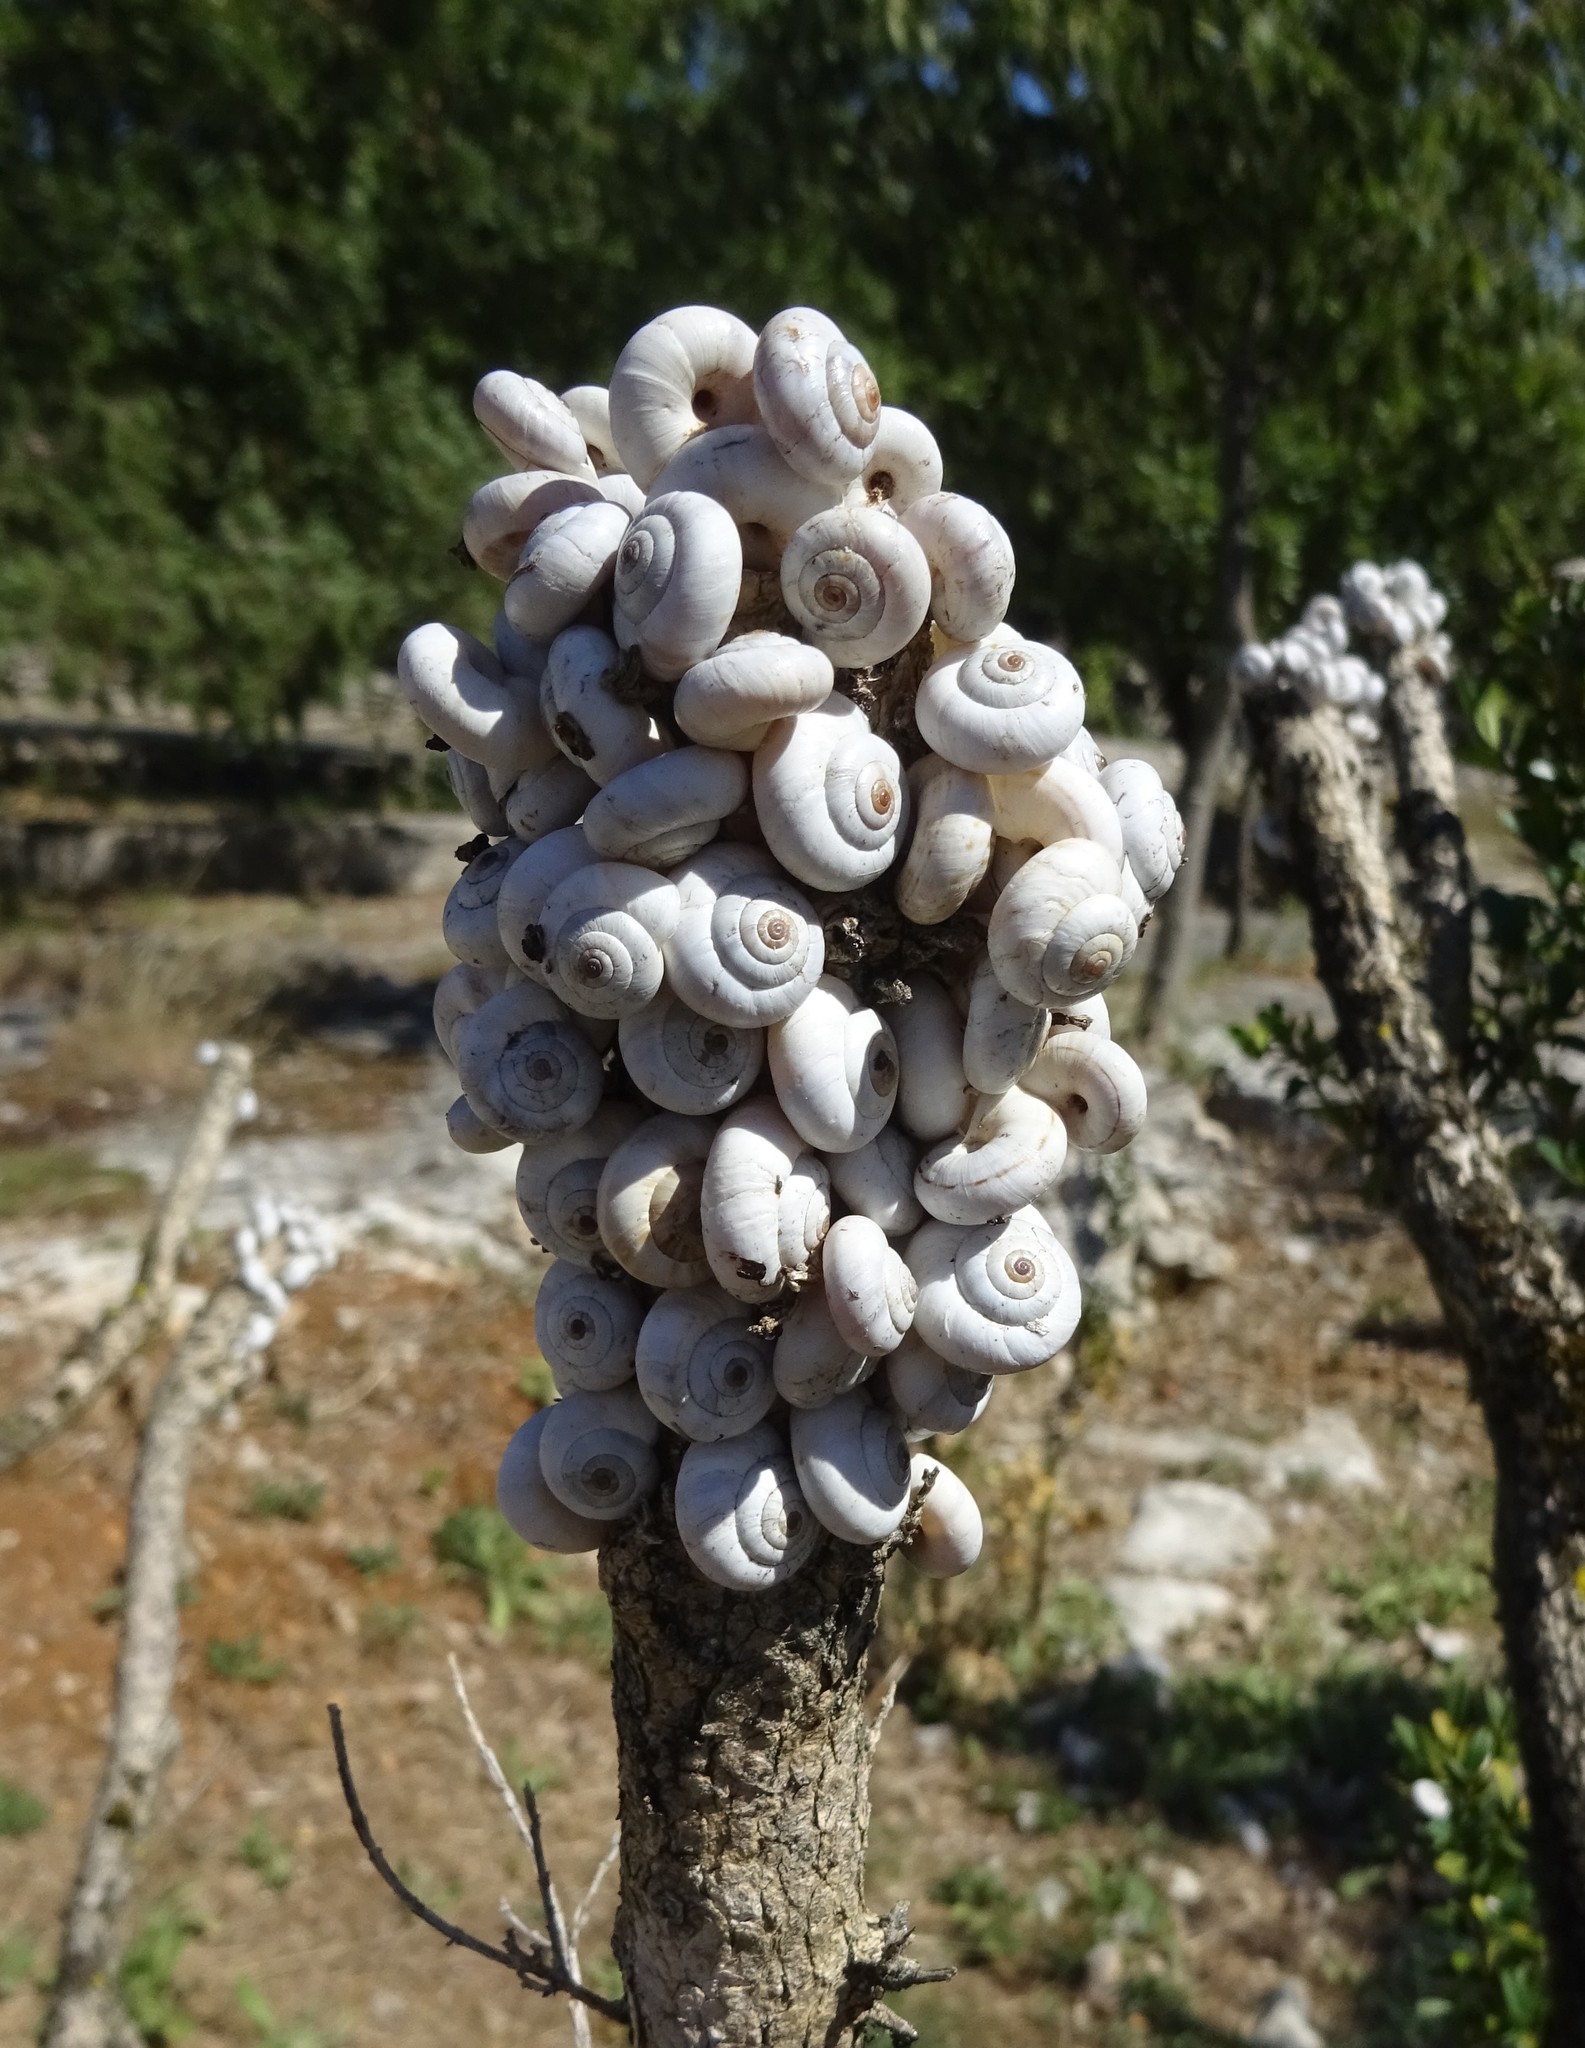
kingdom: Animalia
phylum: Mollusca
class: Gastropoda
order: Stylommatophora
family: Geomitridae
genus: Xeropicta
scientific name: Xeropicta derbentina
